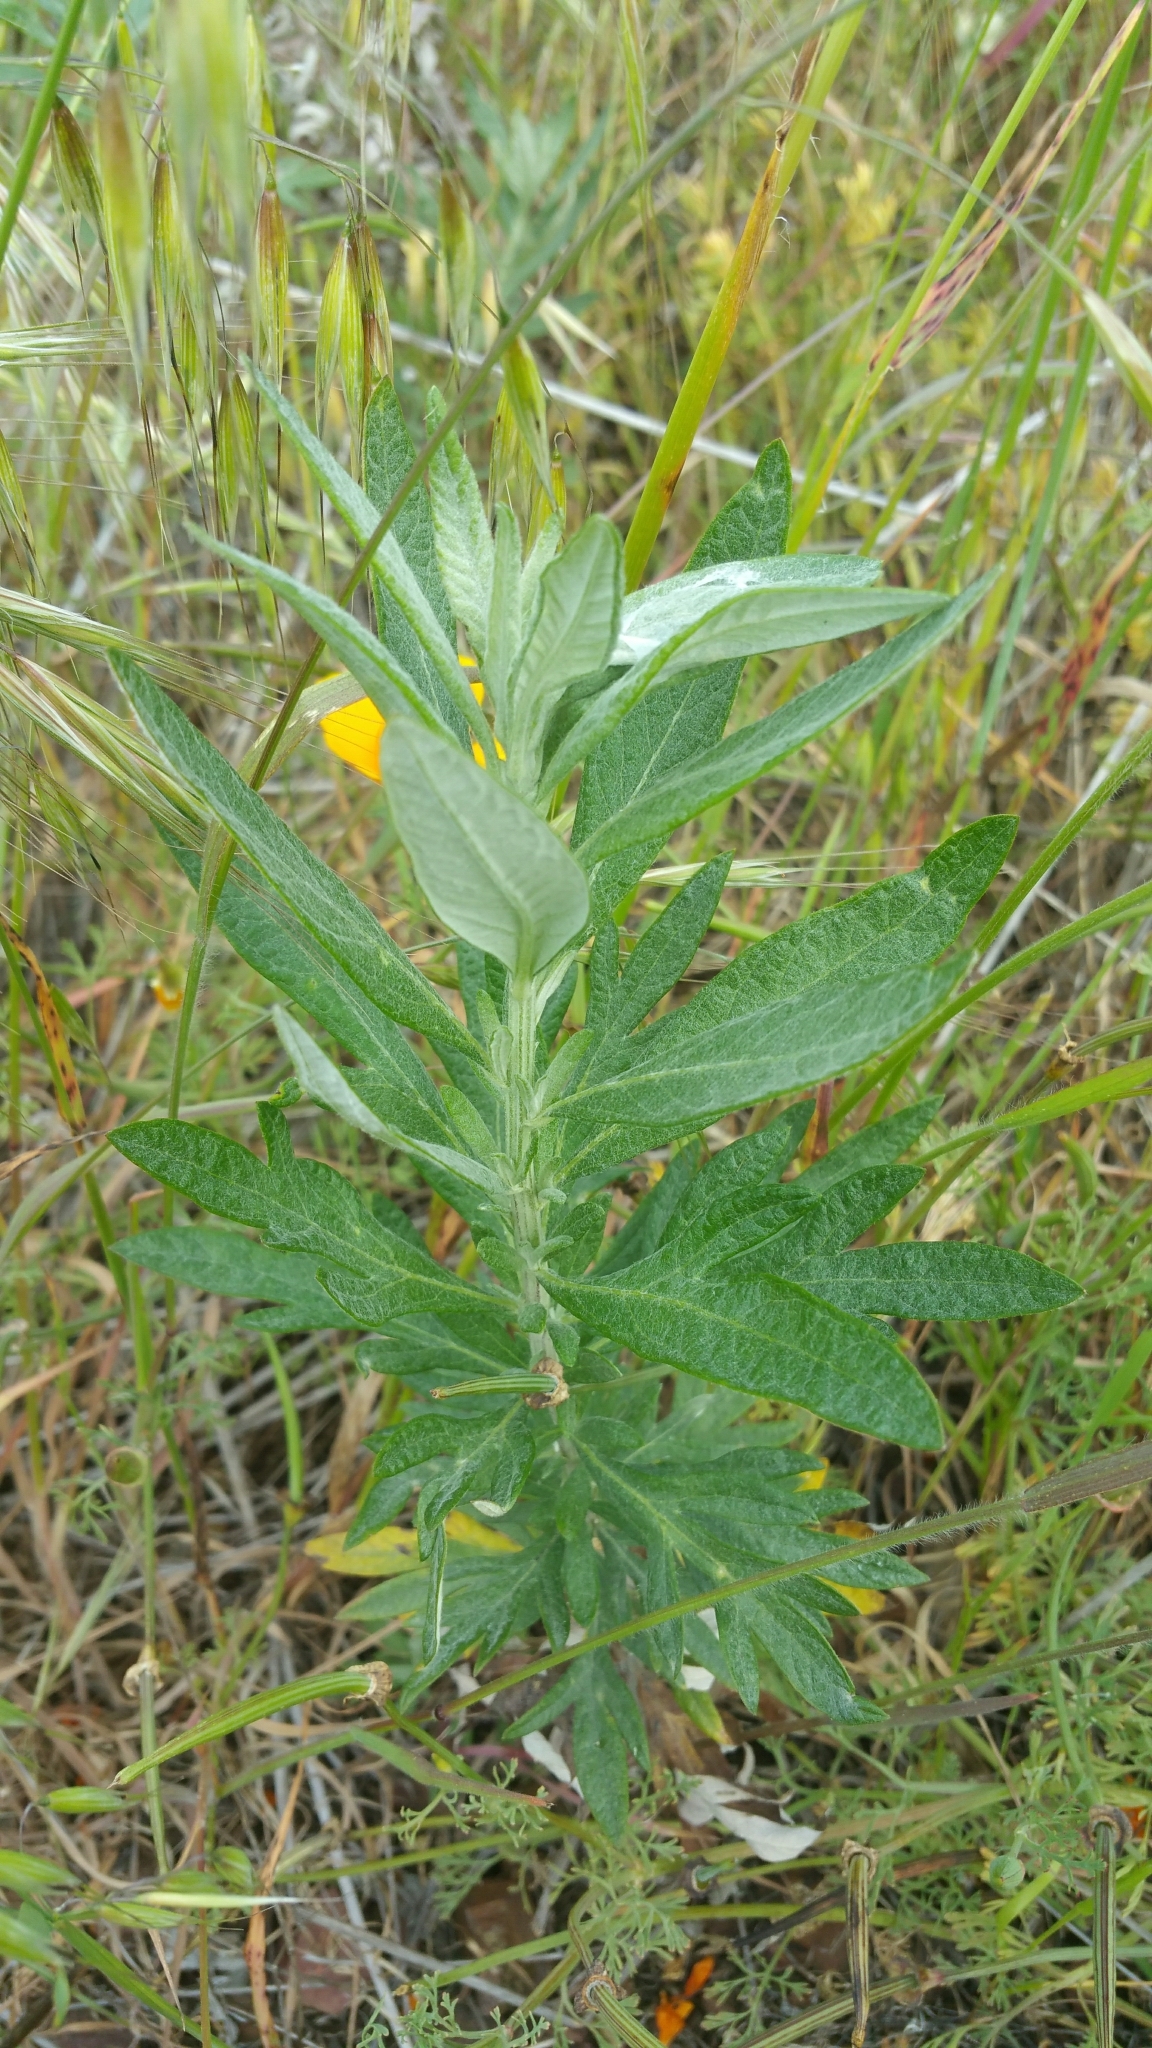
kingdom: Plantae
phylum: Tracheophyta
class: Magnoliopsida
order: Asterales
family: Asteraceae
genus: Artemisia
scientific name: Artemisia douglasiana
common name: Northwest mugwort
